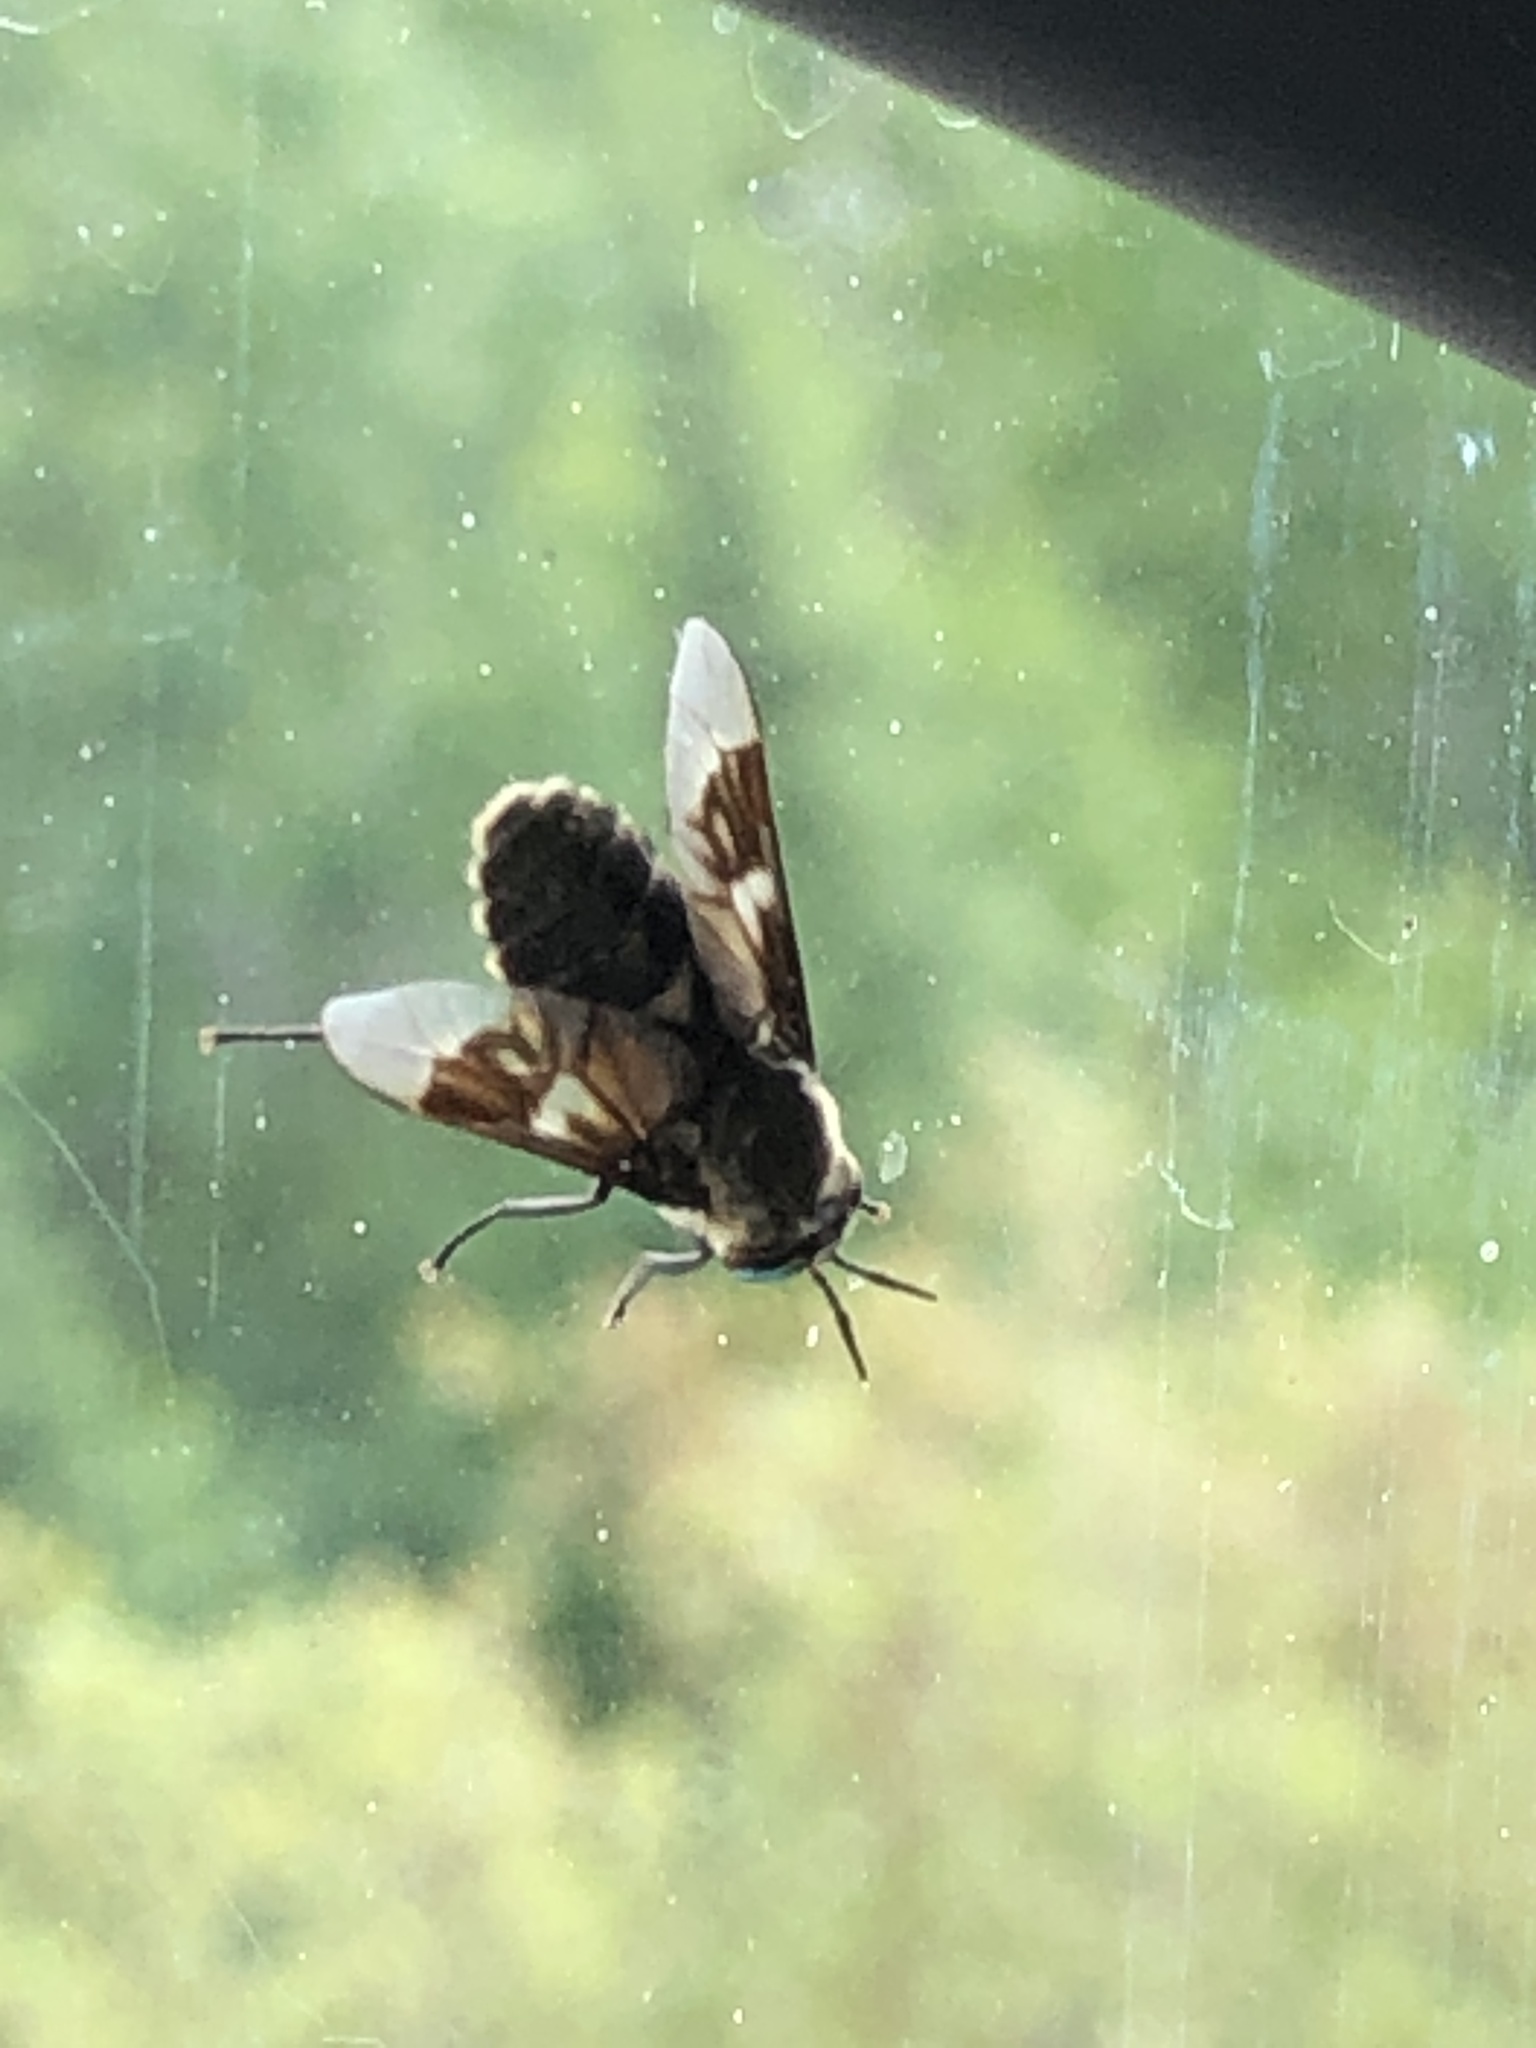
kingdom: Animalia
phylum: Arthropoda
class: Insecta
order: Diptera
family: Tabanidae
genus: Chrysops
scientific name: Chrysops excitans
